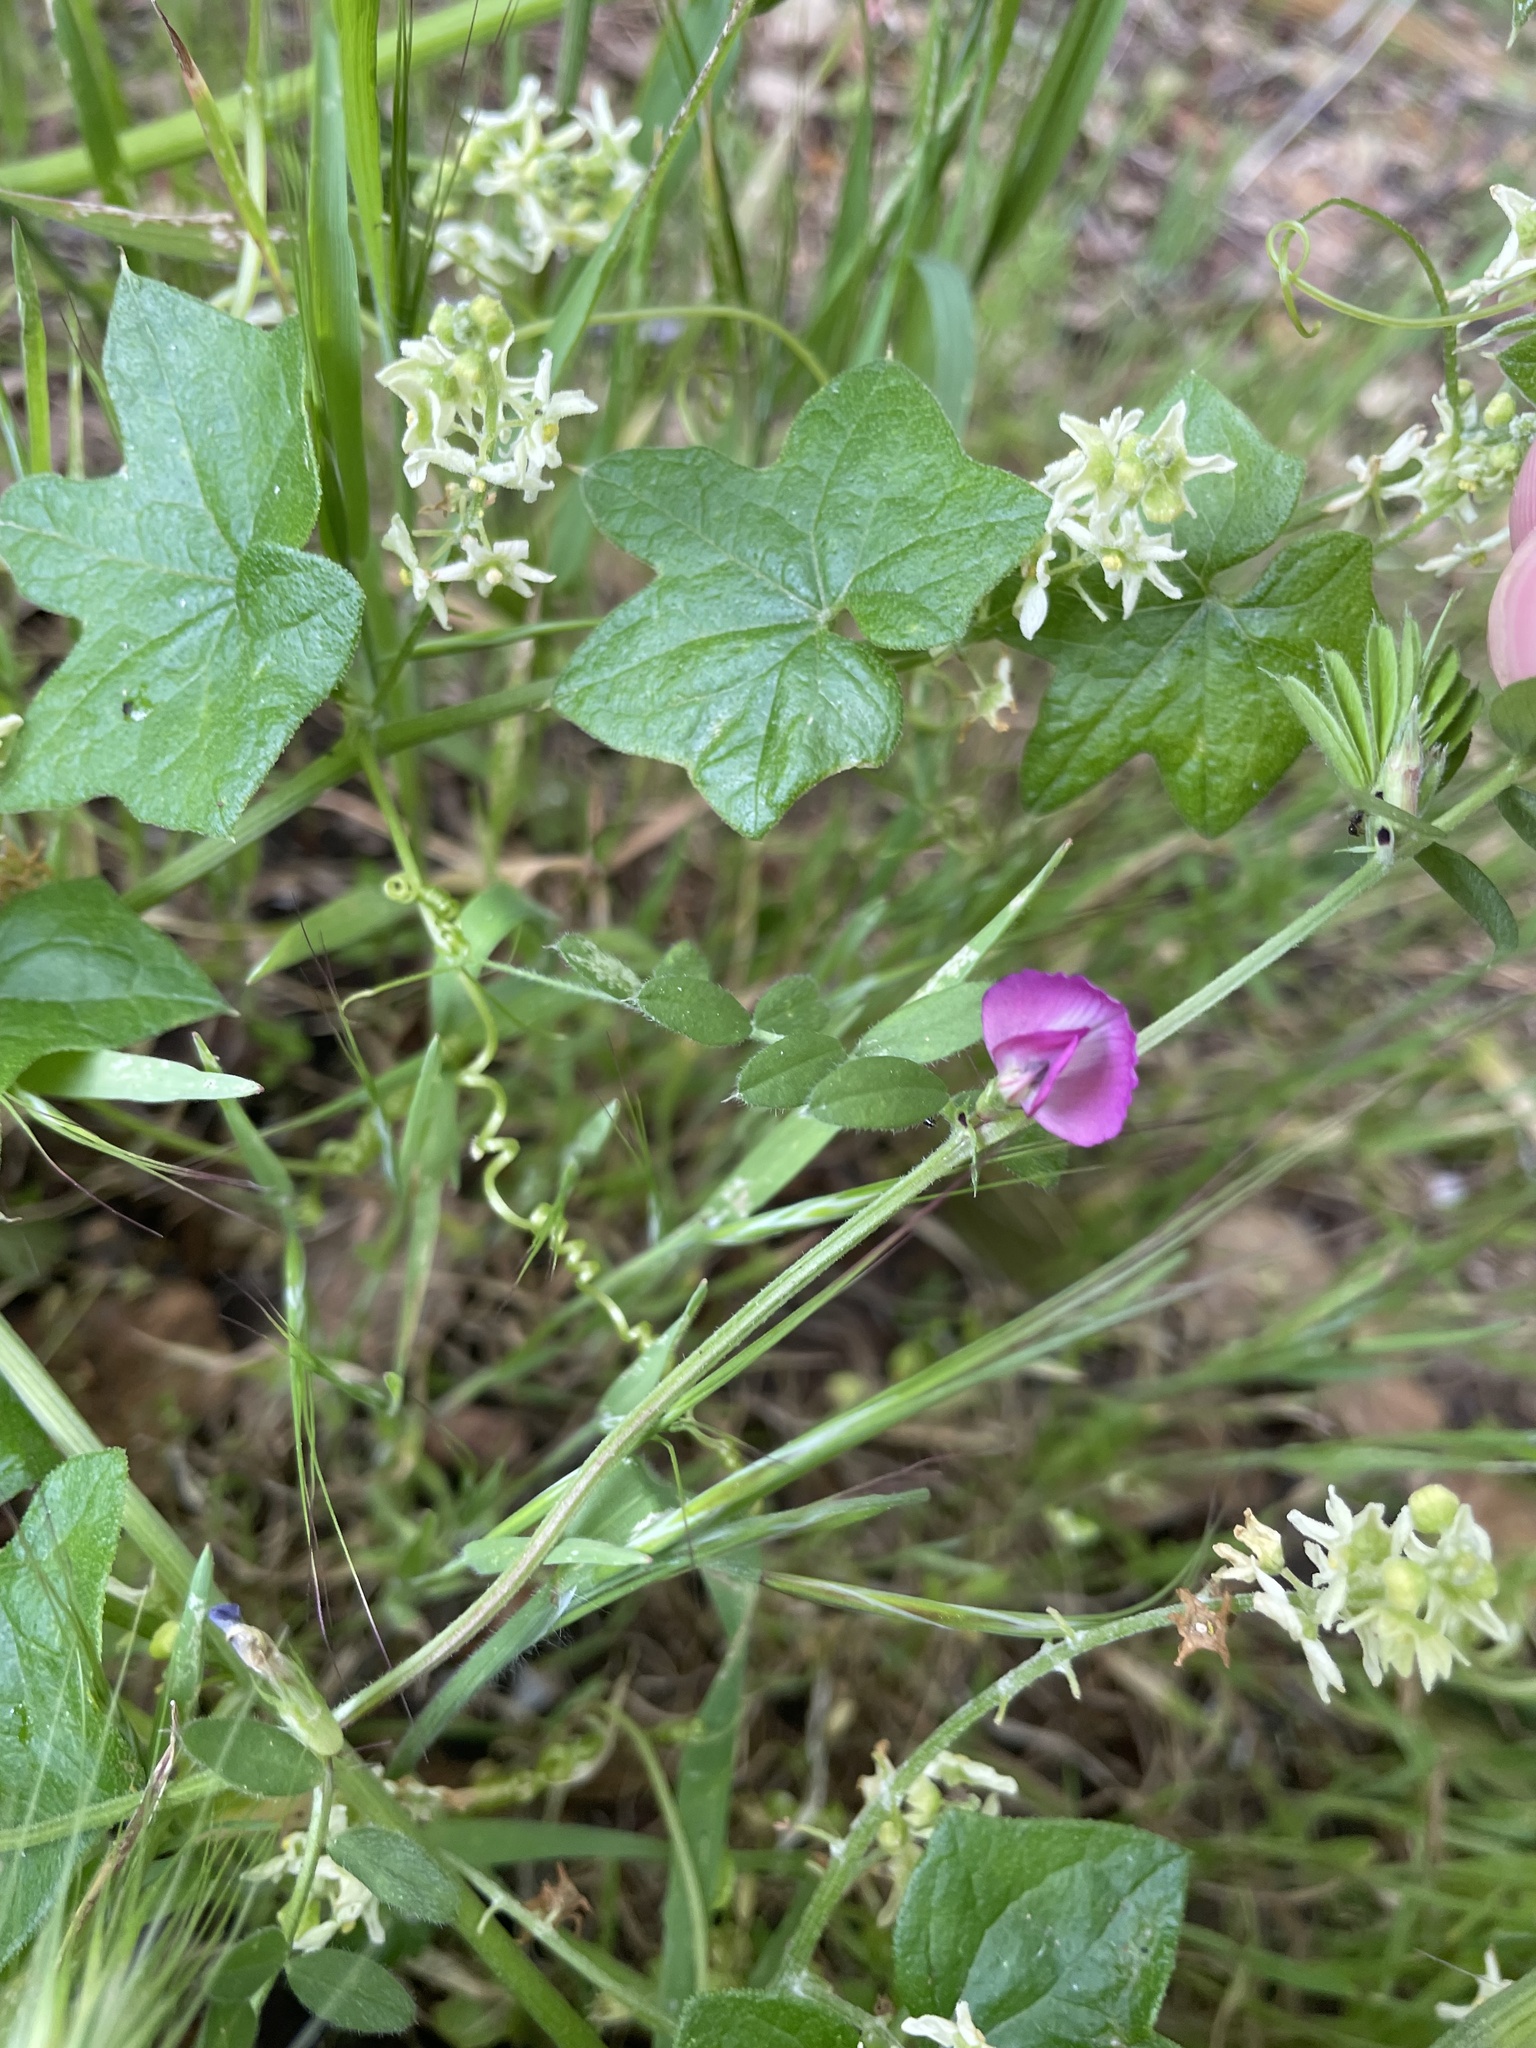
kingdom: Plantae
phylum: Tracheophyta
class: Magnoliopsida
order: Fabales
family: Fabaceae
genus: Vicia
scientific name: Vicia sativa
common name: Garden vetch
